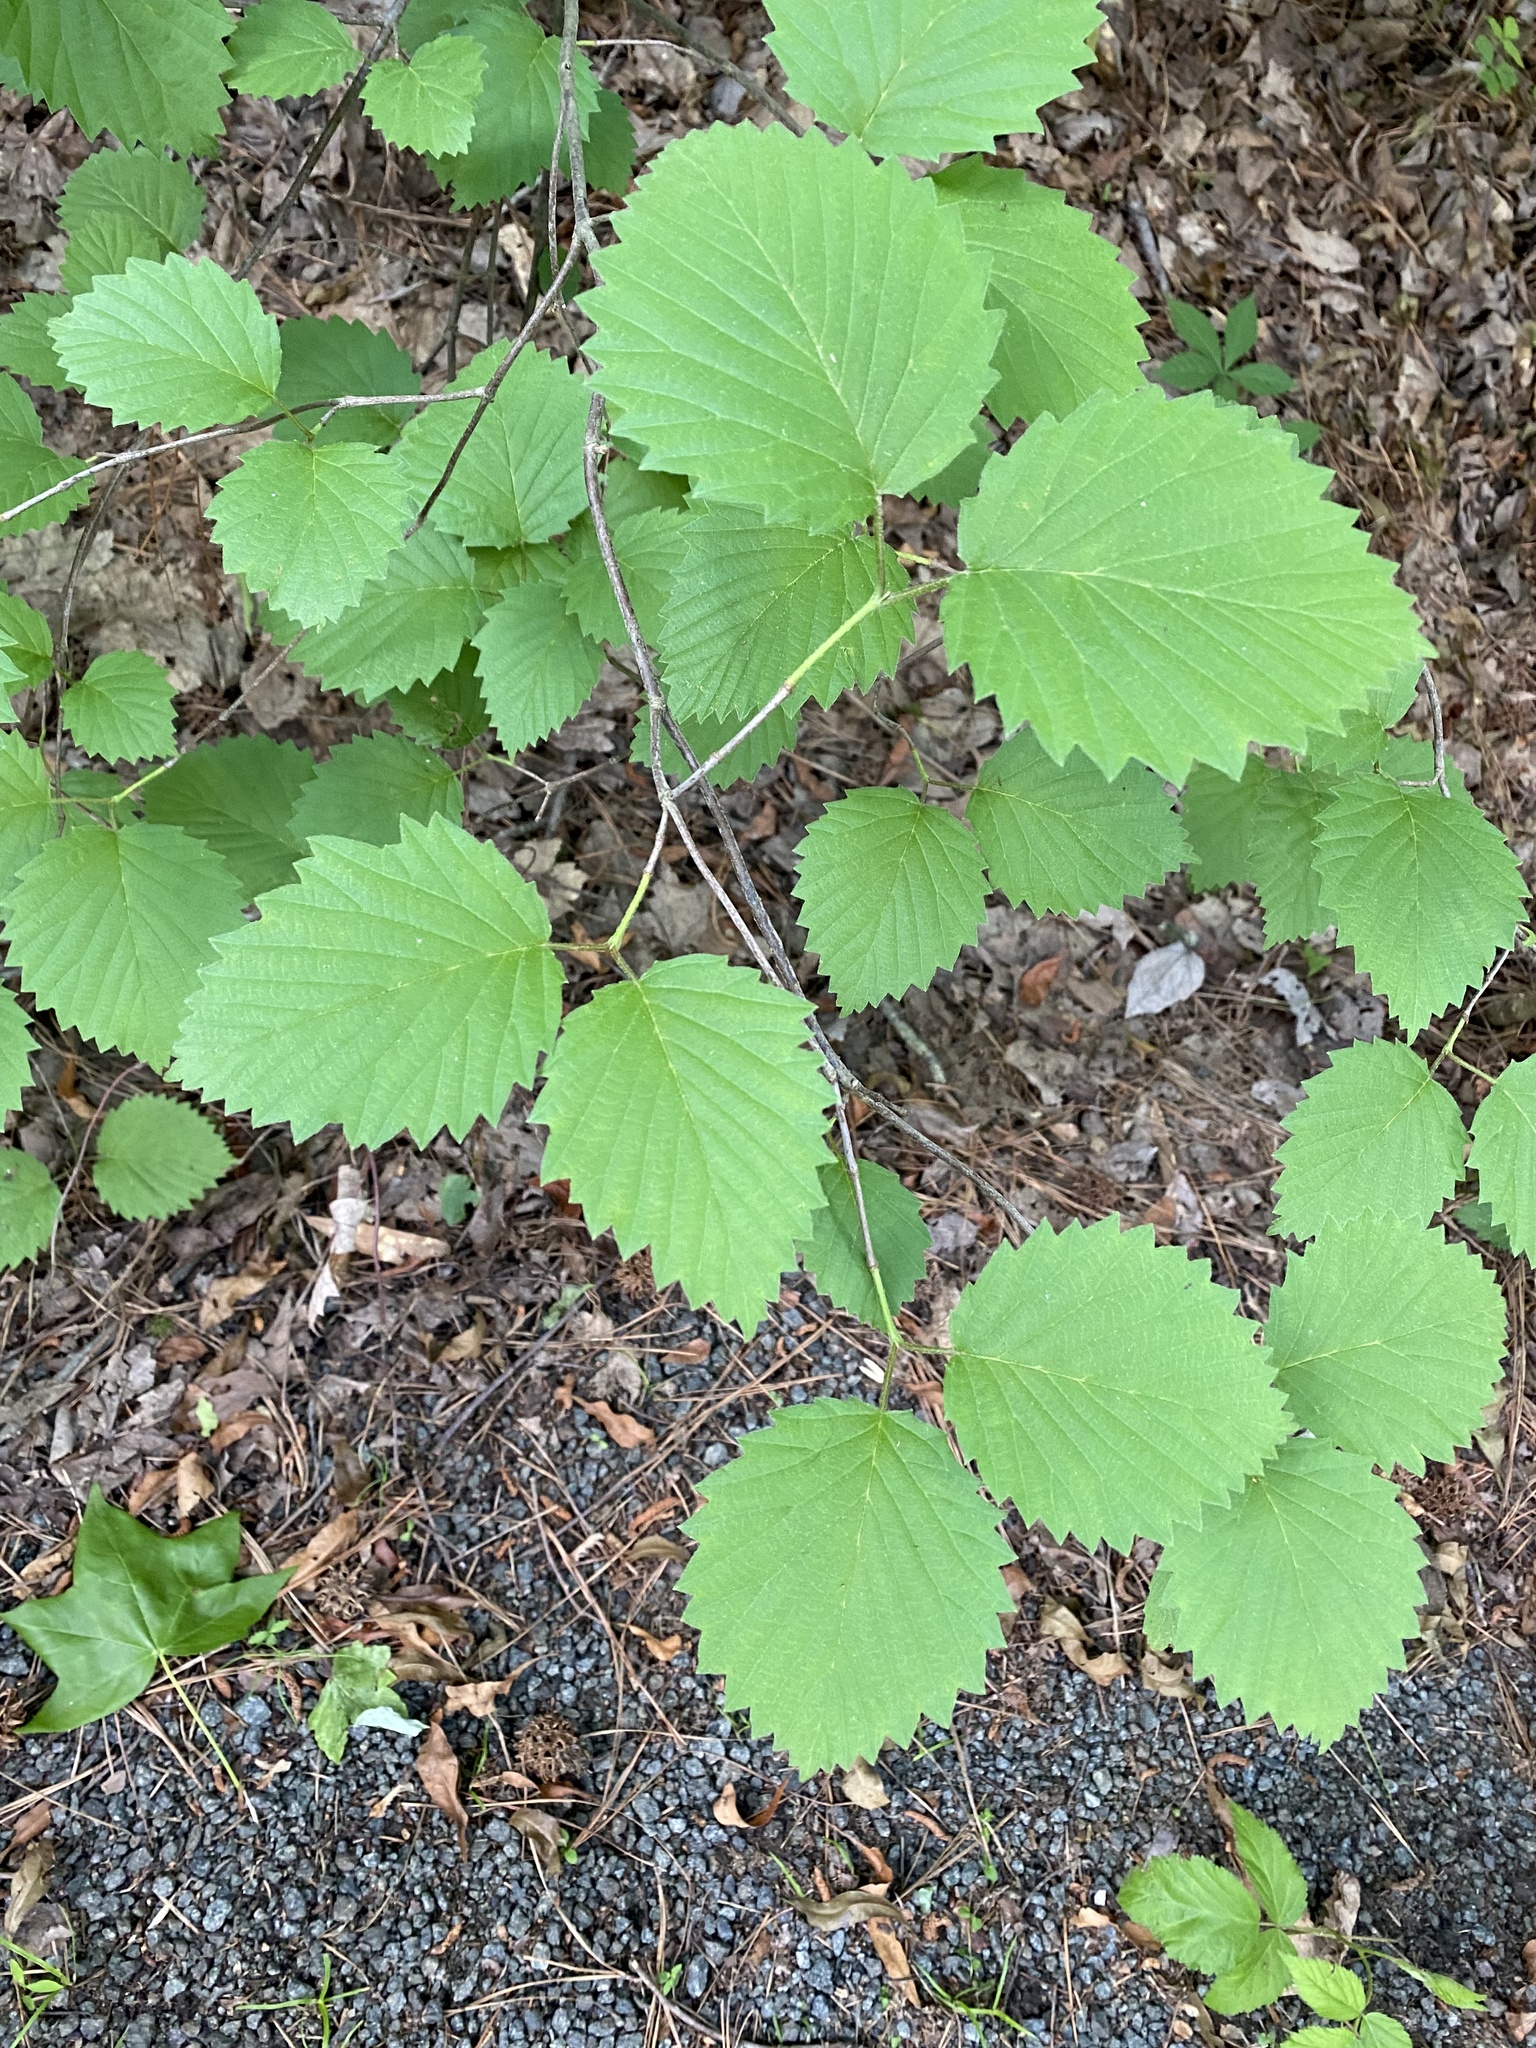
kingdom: Plantae
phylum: Tracheophyta
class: Magnoliopsida
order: Dipsacales
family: Viburnaceae
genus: Viburnum
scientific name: Viburnum dentatum
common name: Arrow-wood
